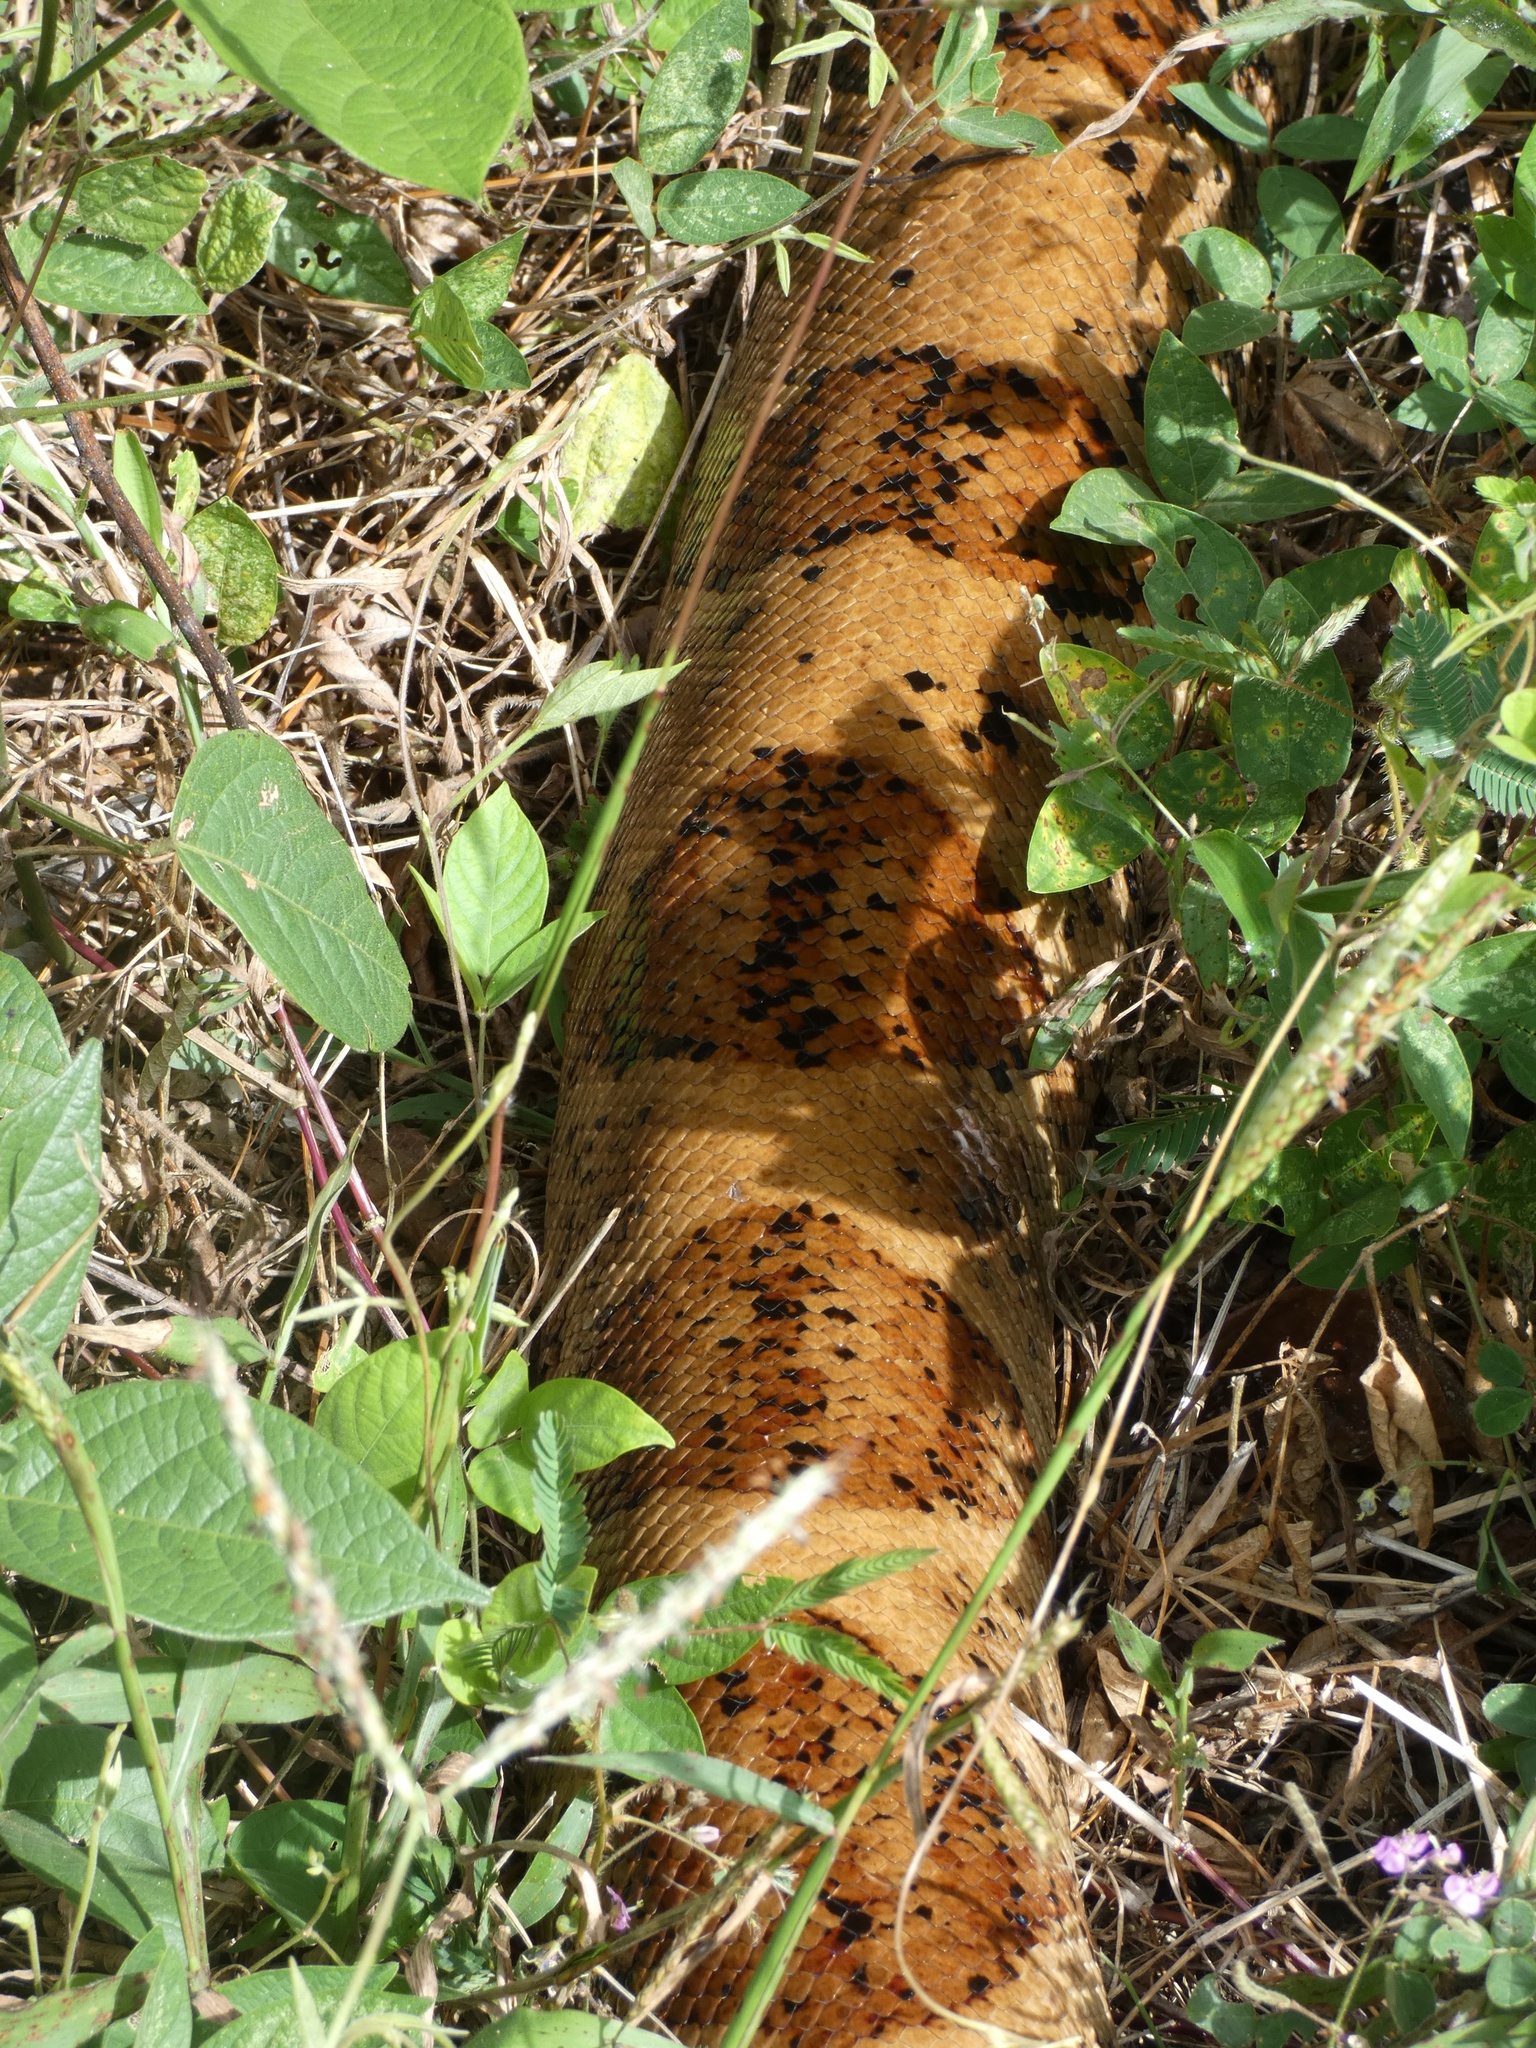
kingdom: Animalia
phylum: Chordata
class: Squamata
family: Boidae
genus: Boa
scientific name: Boa imperator
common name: Central american boa
